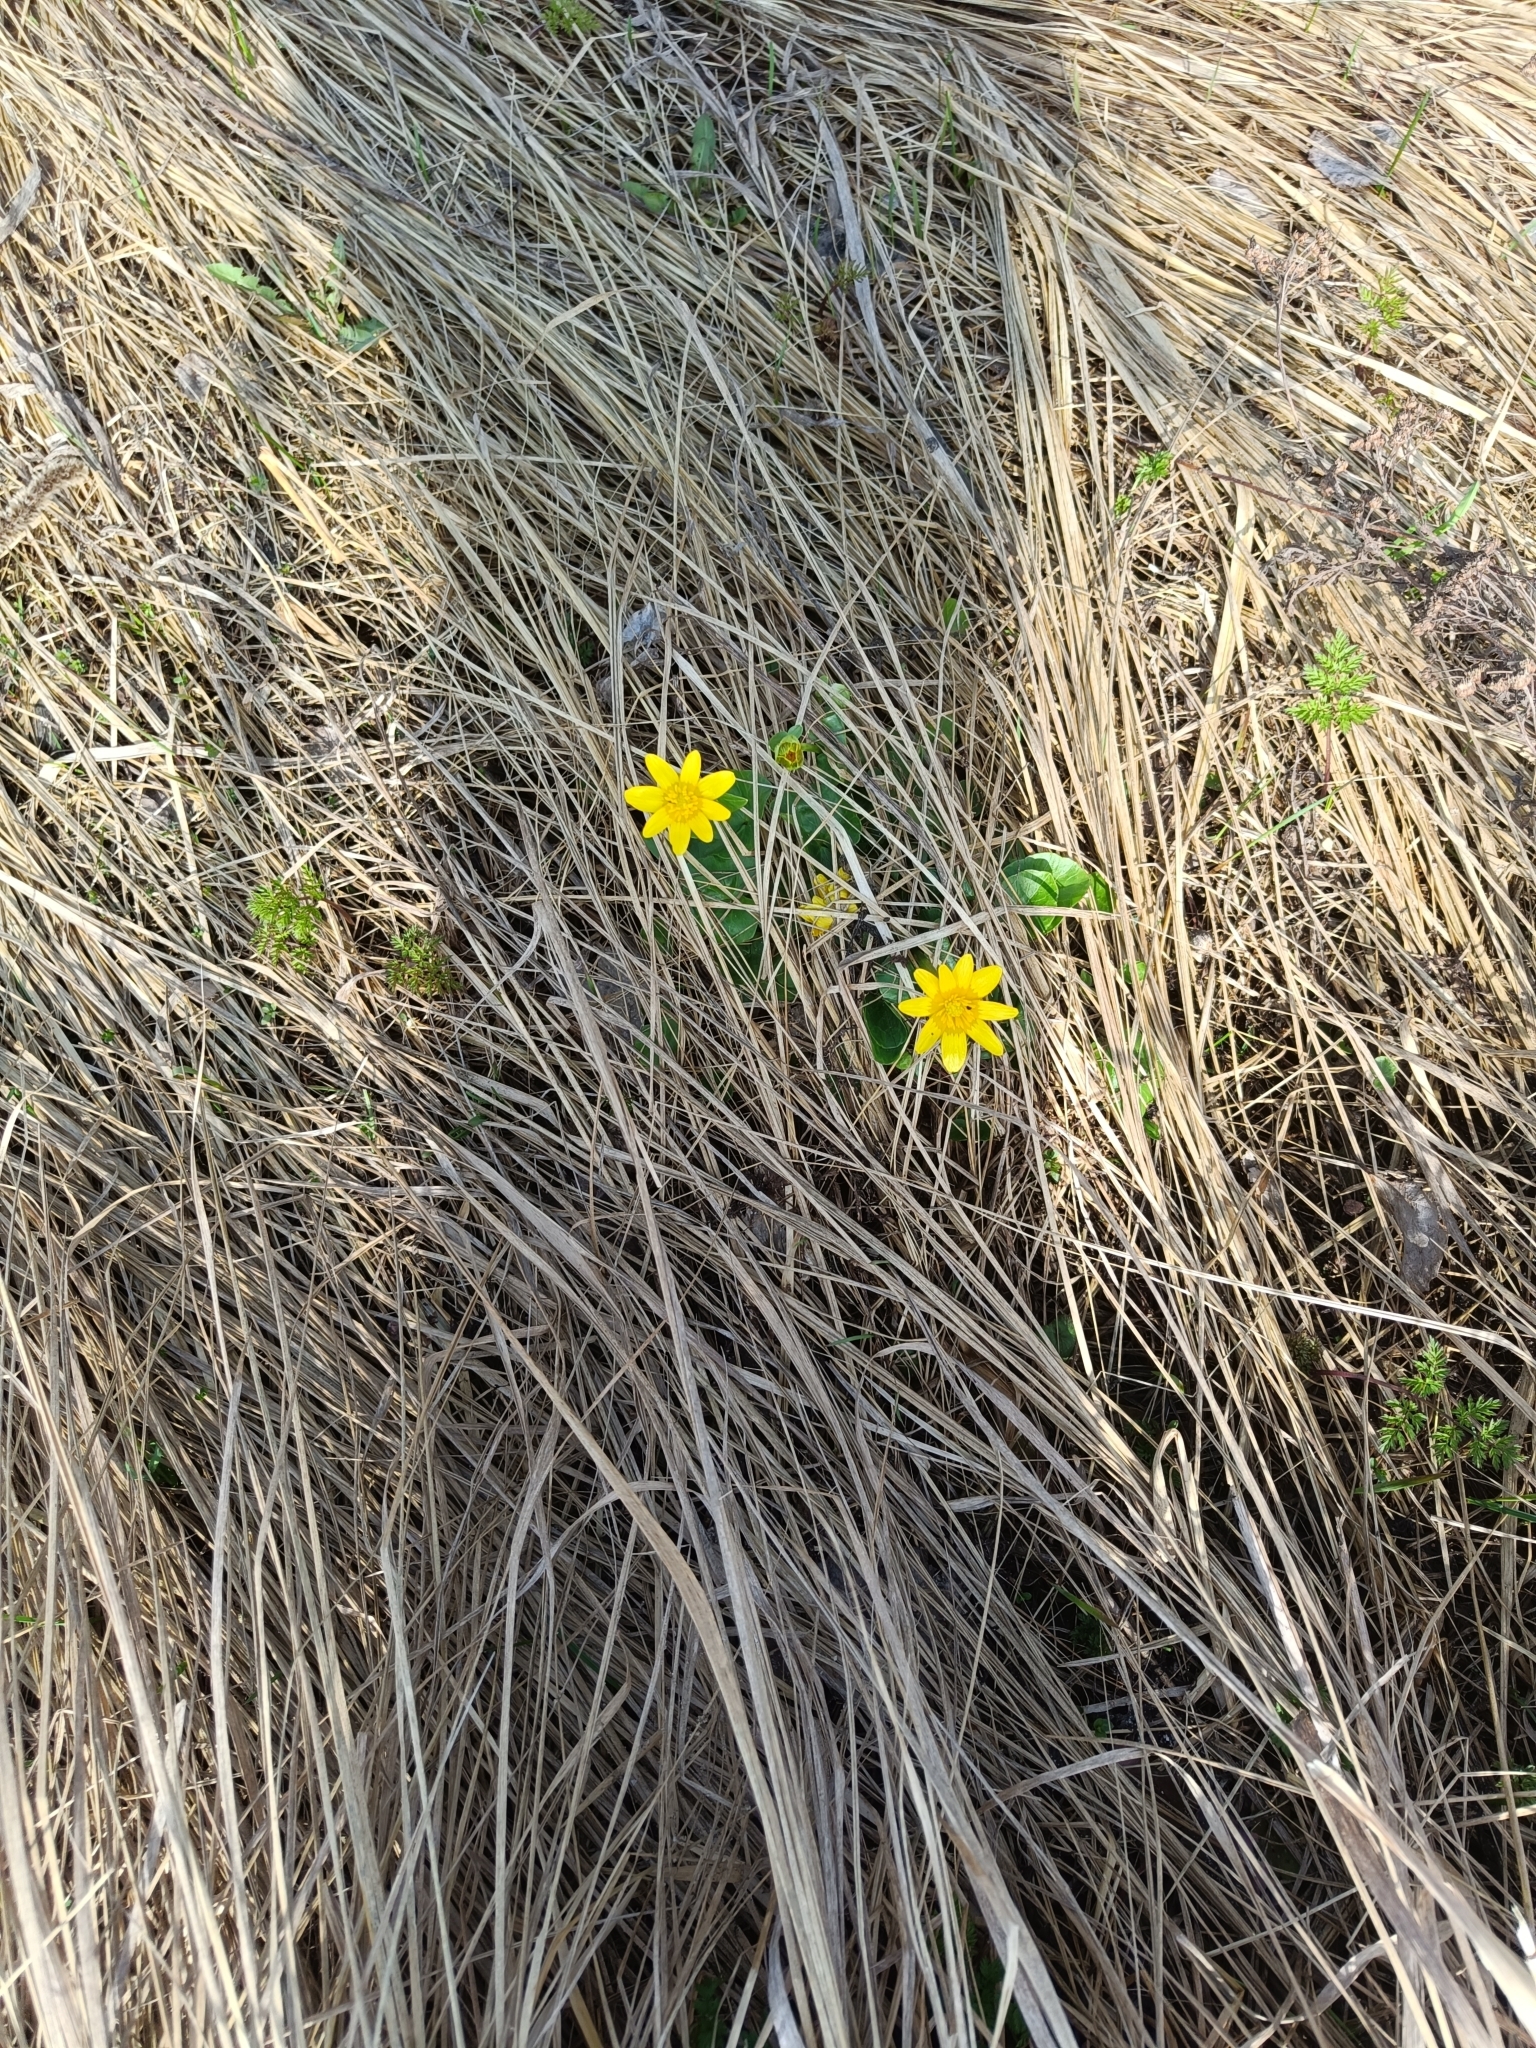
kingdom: Plantae
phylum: Tracheophyta
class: Magnoliopsida
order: Ranunculales
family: Ranunculaceae
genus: Ficaria
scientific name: Ficaria verna
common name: Lesser celandine
